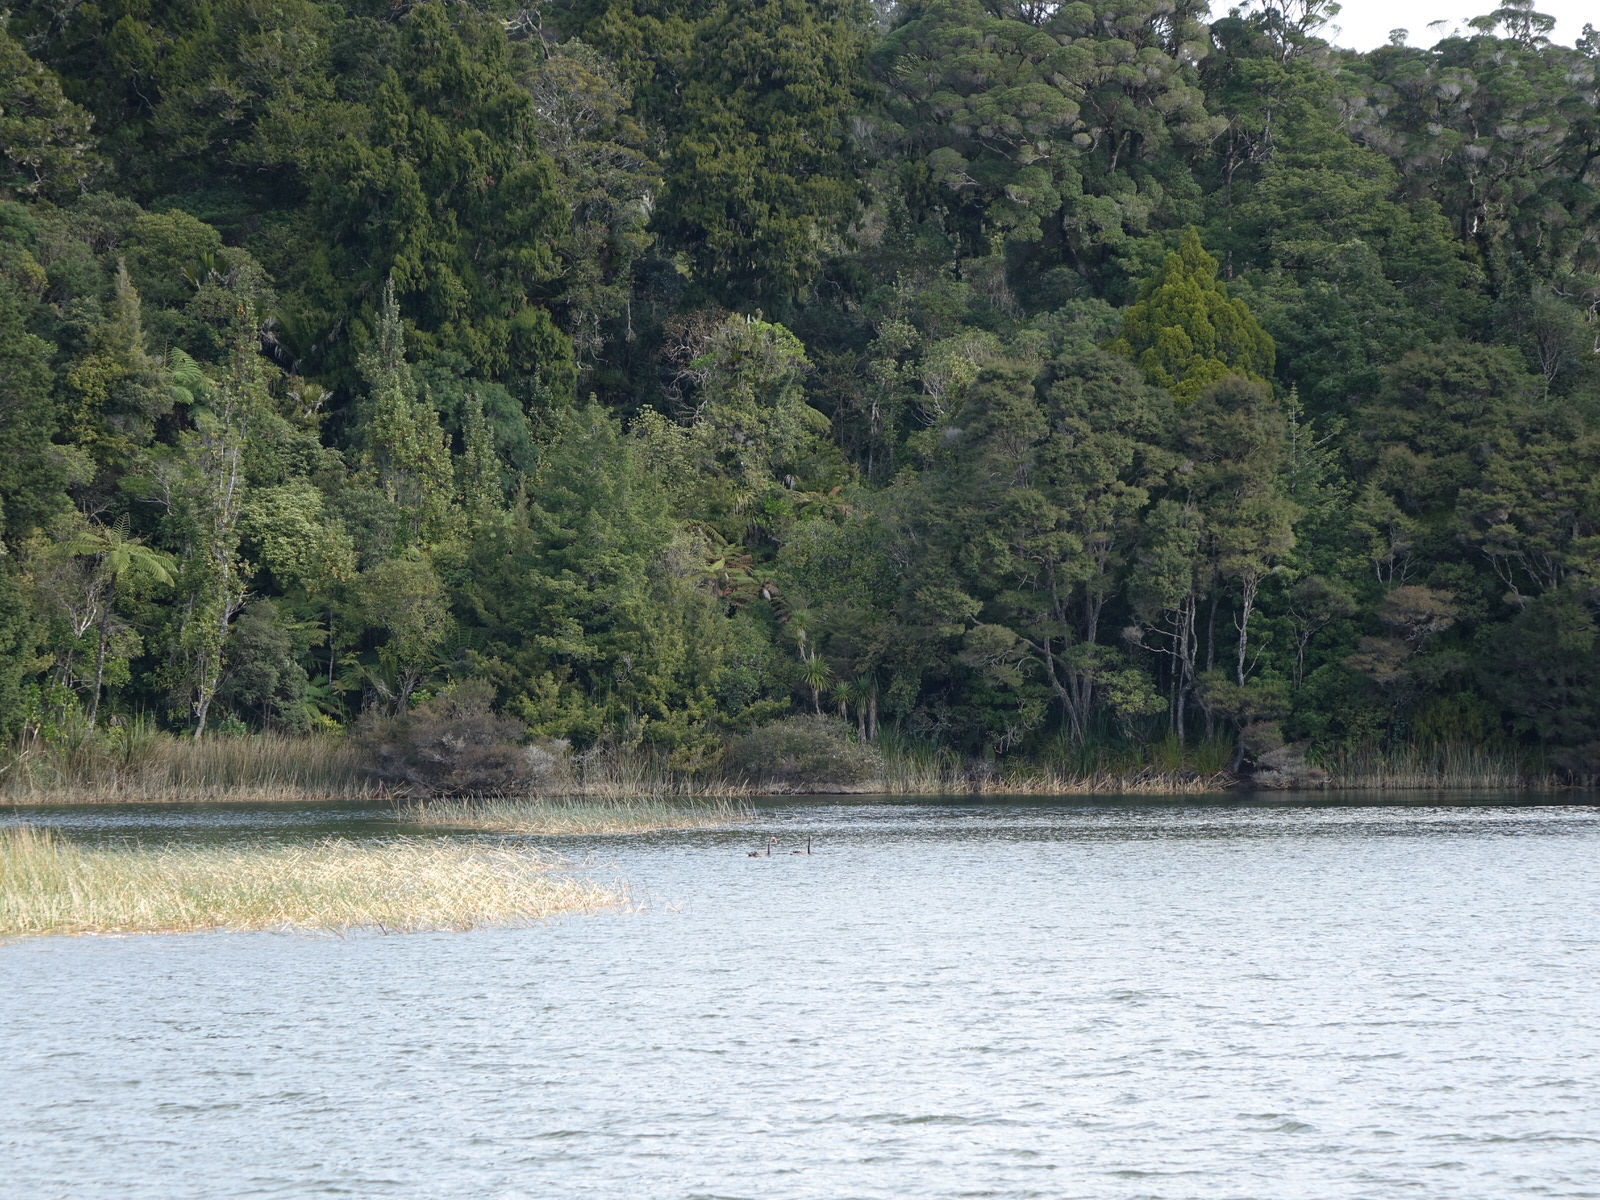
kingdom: Animalia
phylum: Chordata
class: Aves
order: Anseriformes
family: Anatidae
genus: Cygnus
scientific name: Cygnus atratus
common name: Black swan
